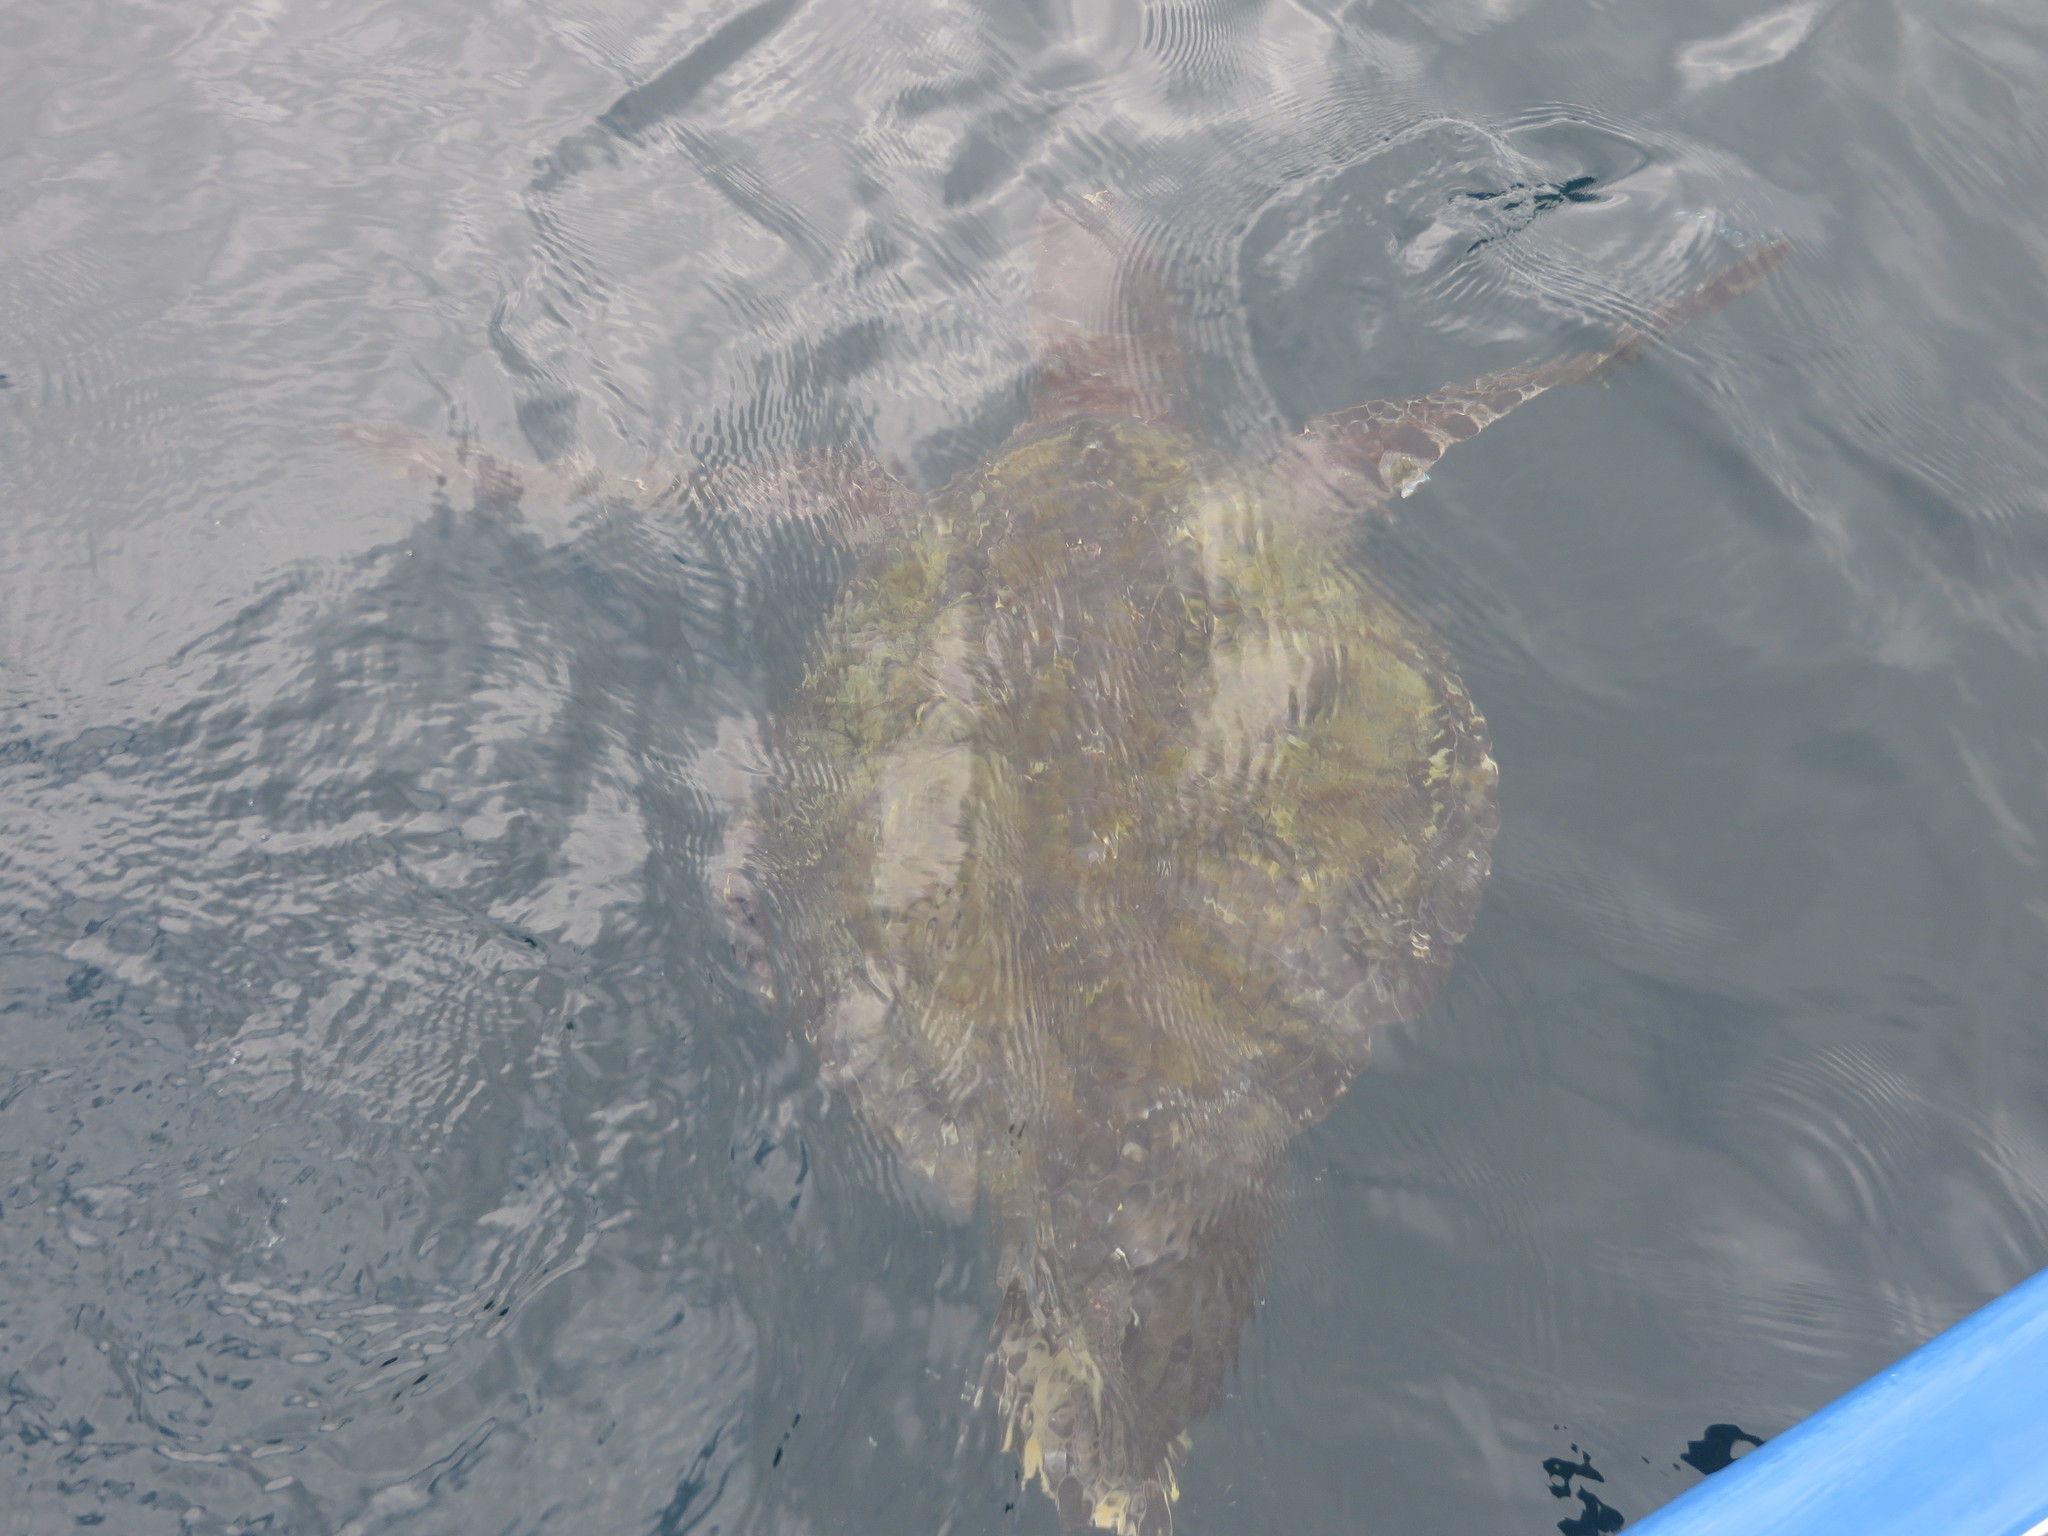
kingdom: Animalia
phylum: Chordata
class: Testudines
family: Cheloniidae
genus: Chelonia
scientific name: Chelonia mydas
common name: Green turtle
